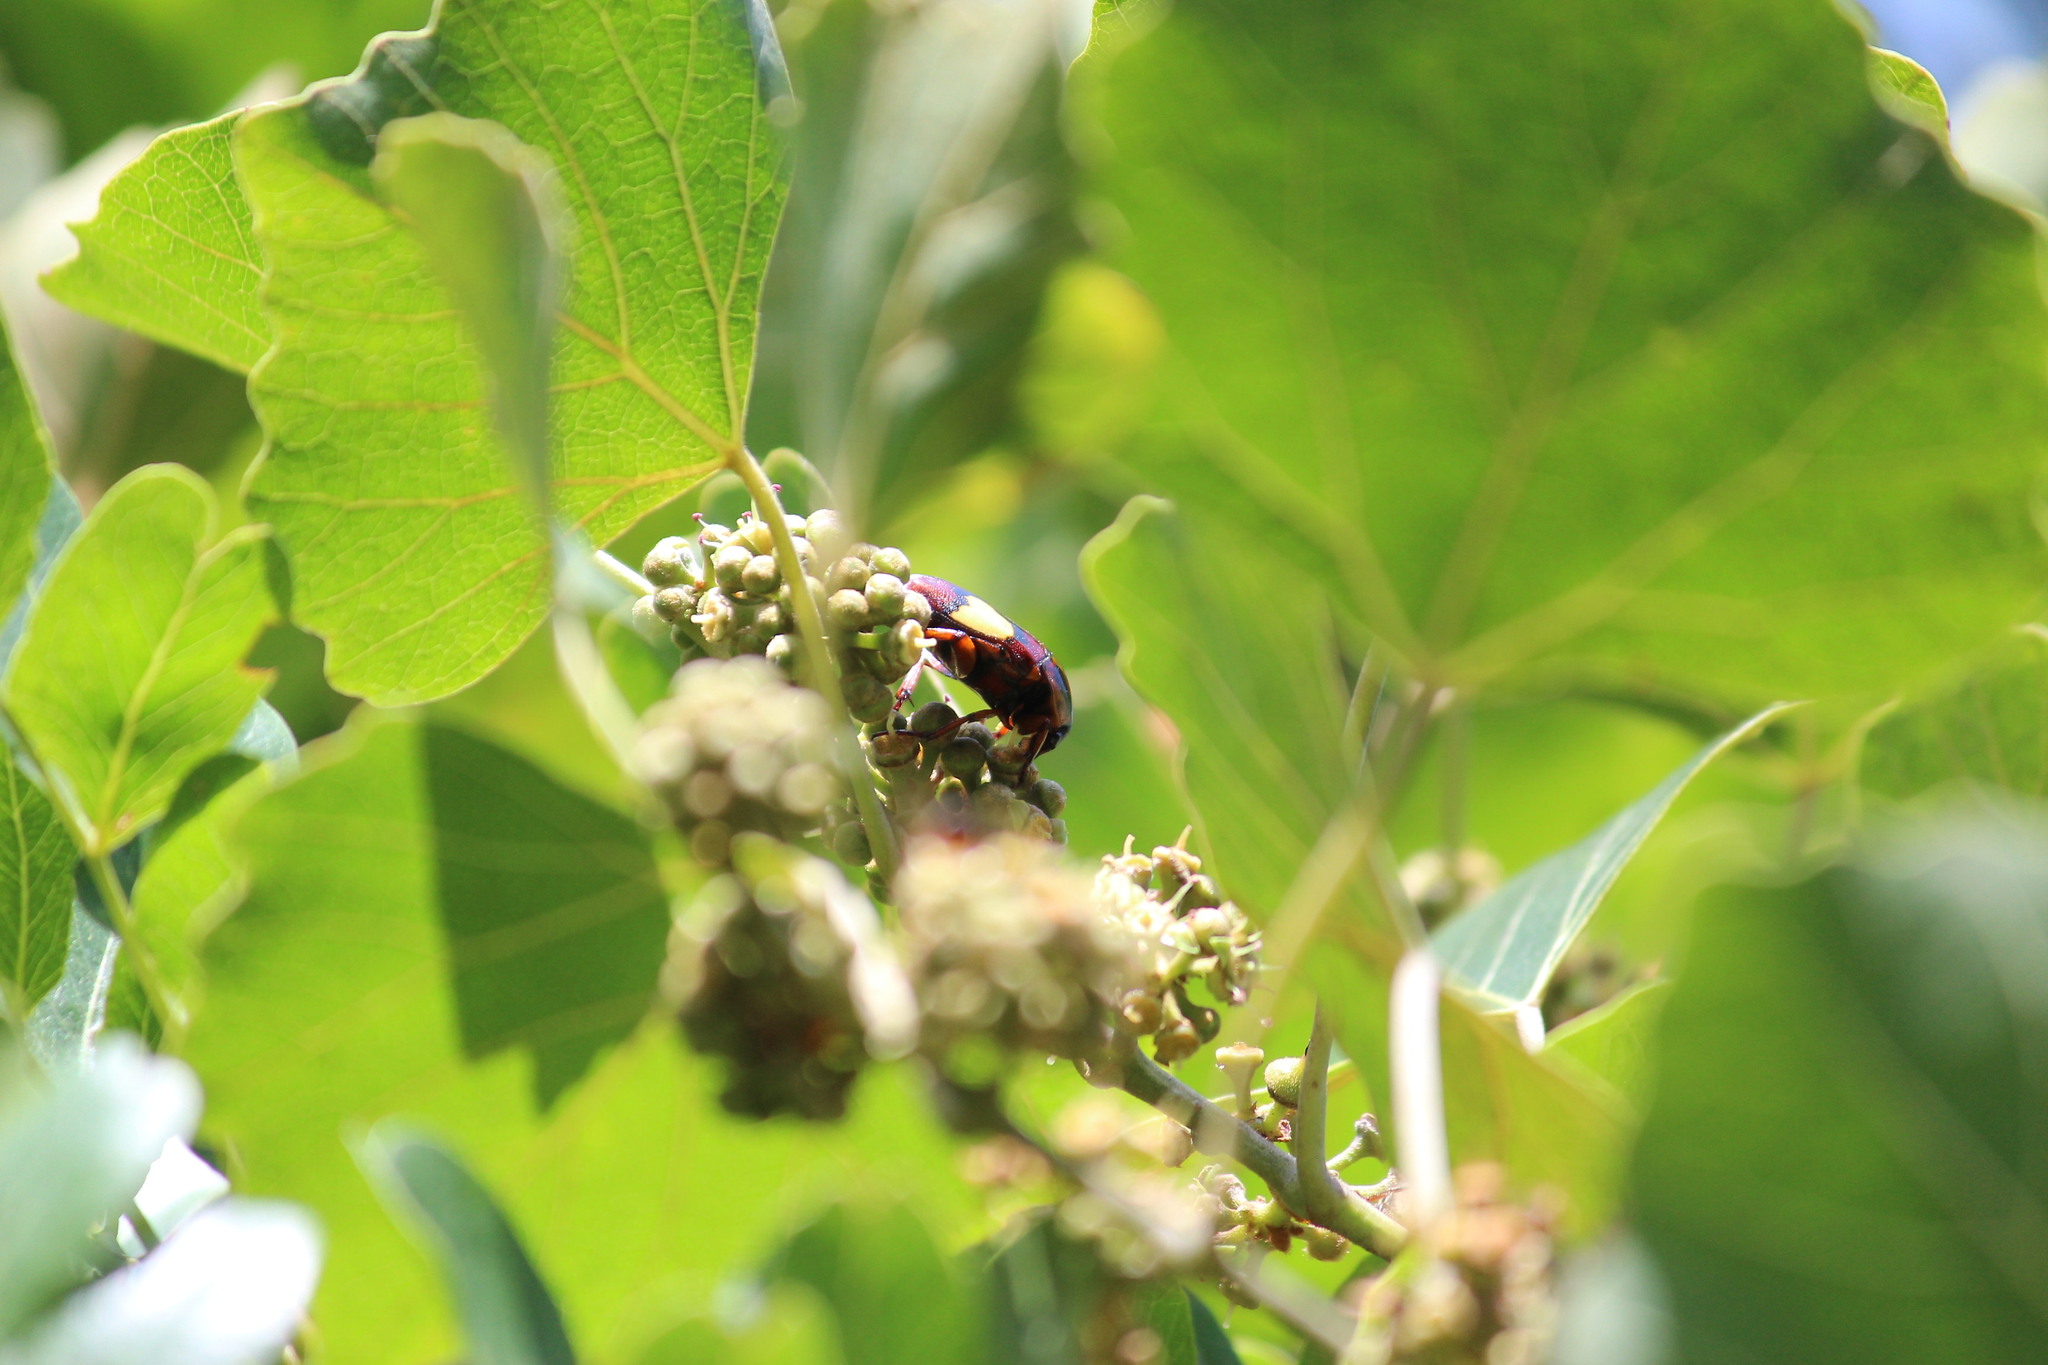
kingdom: Animalia
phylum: Arthropoda
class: Insecta
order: Coleoptera
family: Scarabaeidae
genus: Pedinorrhina
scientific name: Pedinorrhina
